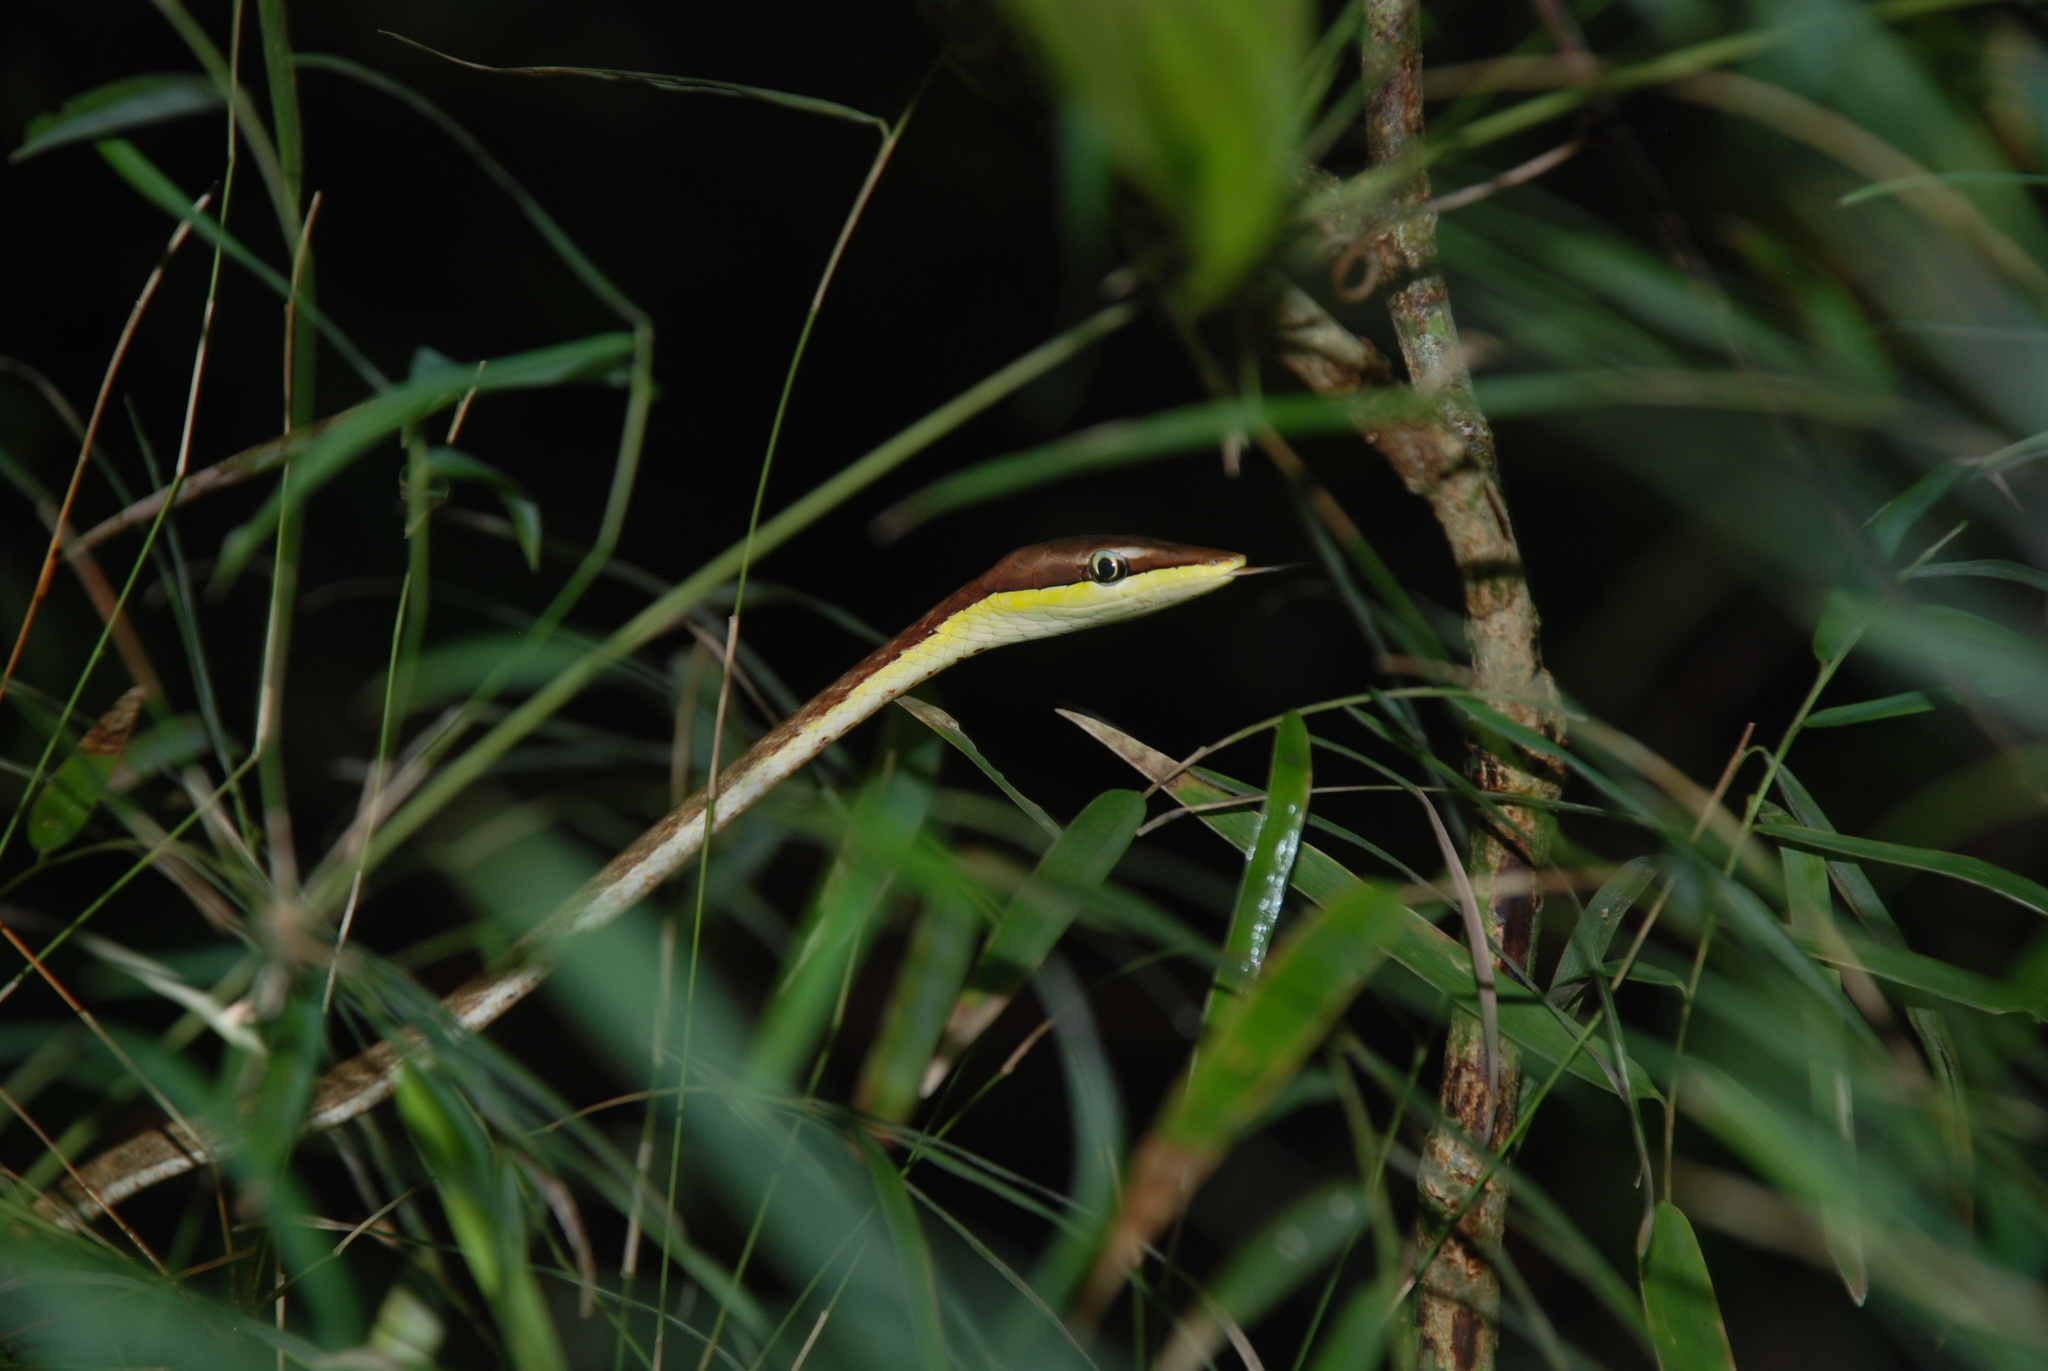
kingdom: Animalia
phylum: Chordata
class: Squamata
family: Colubridae
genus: Oxybelis
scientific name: Oxybelis koehleri
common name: Köhler’s vine snake
